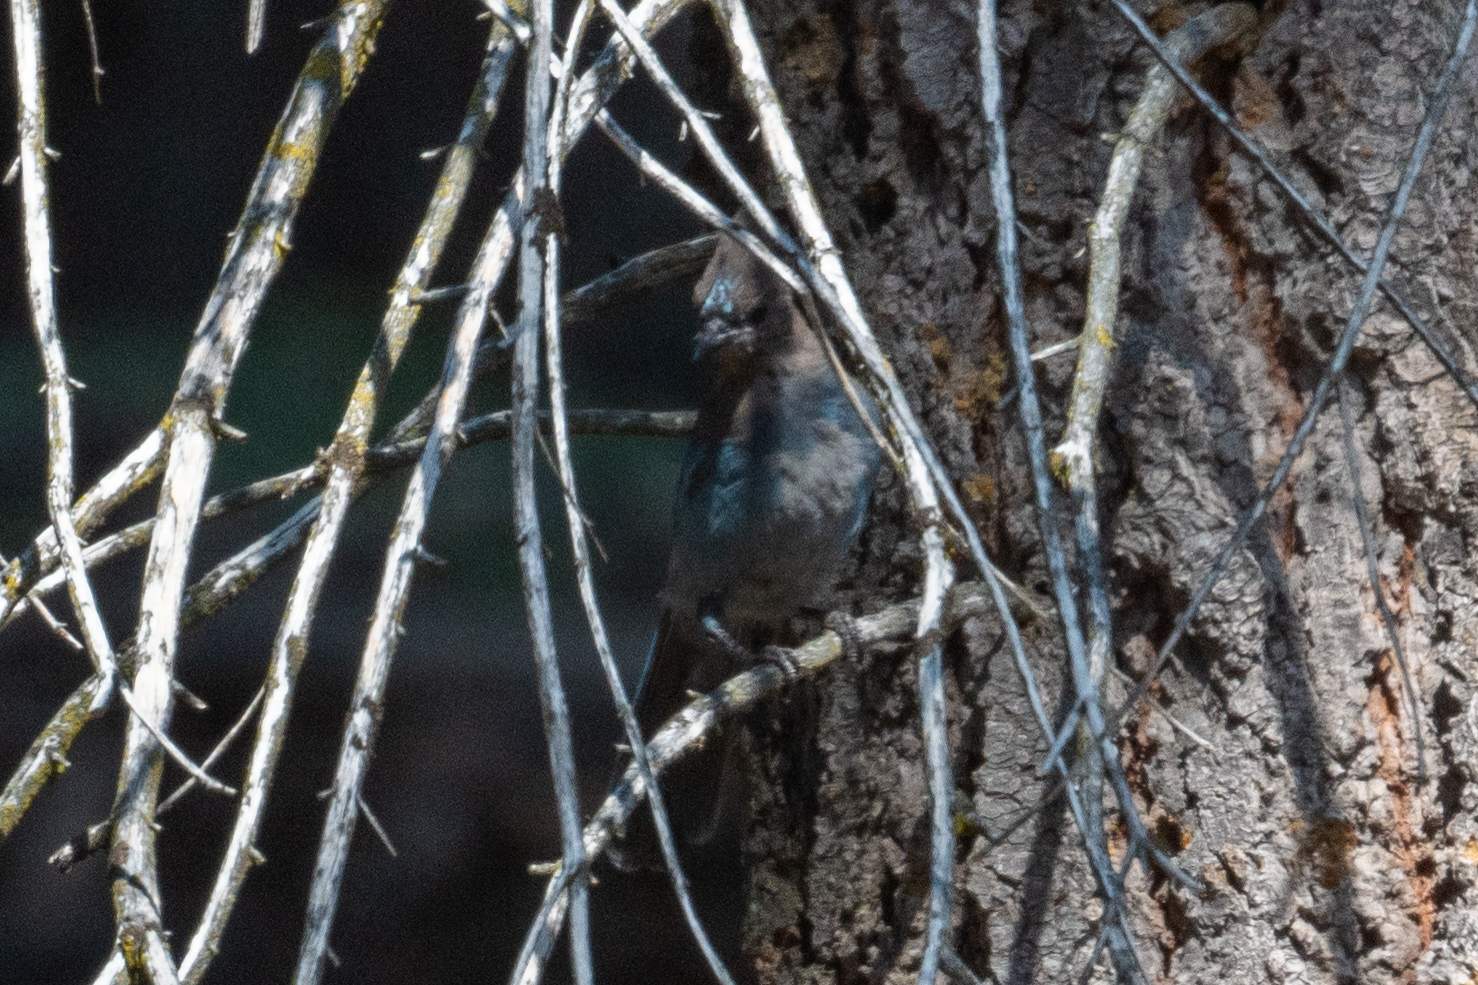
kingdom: Animalia
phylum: Chordata
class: Aves
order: Passeriformes
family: Corvidae
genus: Cyanocitta
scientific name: Cyanocitta stelleri
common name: Steller's jay
